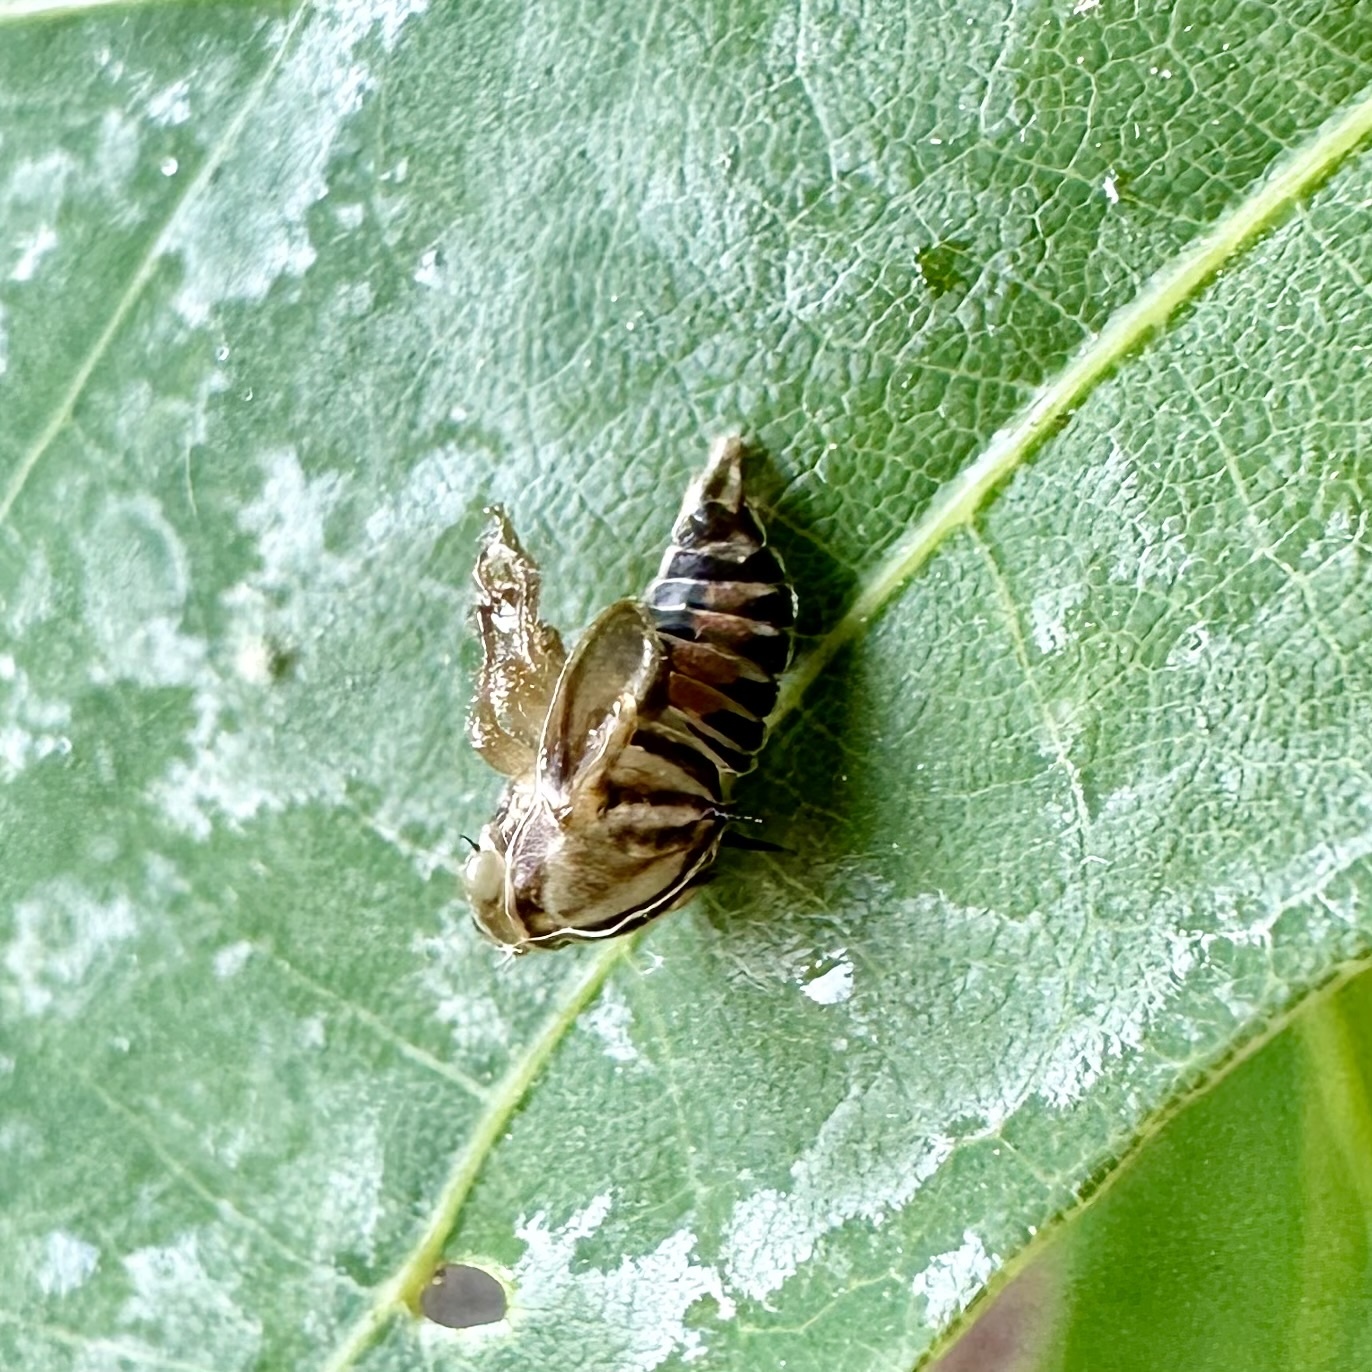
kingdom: Animalia
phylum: Arthropoda
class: Insecta
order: Hemiptera
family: Membracidae
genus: Platycotis
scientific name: Platycotis vittatus
